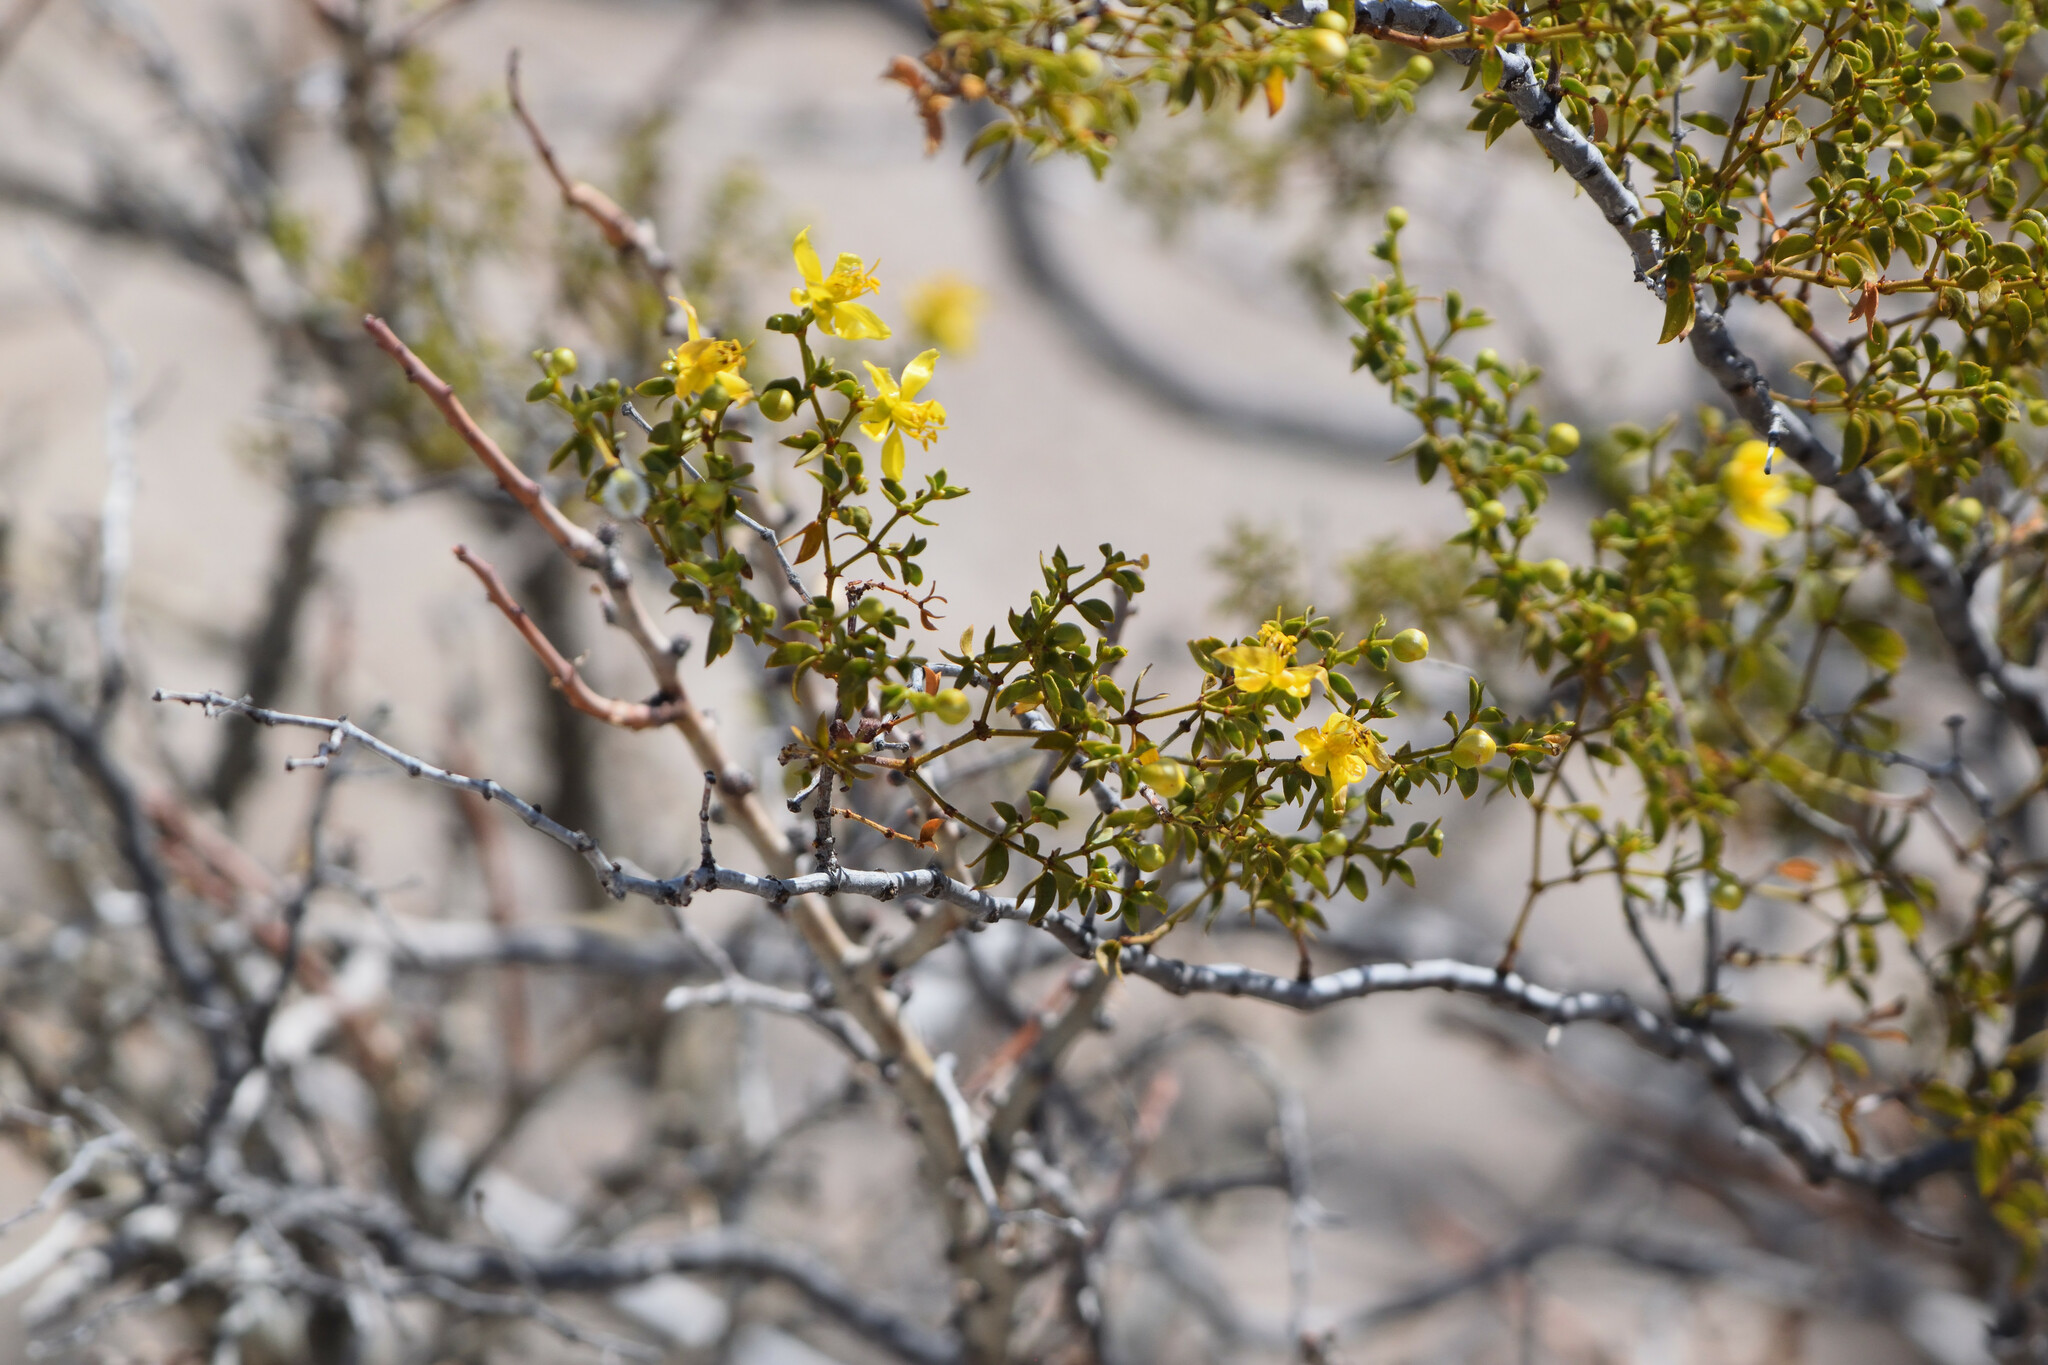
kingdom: Plantae
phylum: Tracheophyta
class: Magnoliopsida
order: Zygophyllales
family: Zygophyllaceae
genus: Larrea
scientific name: Larrea tridentata
